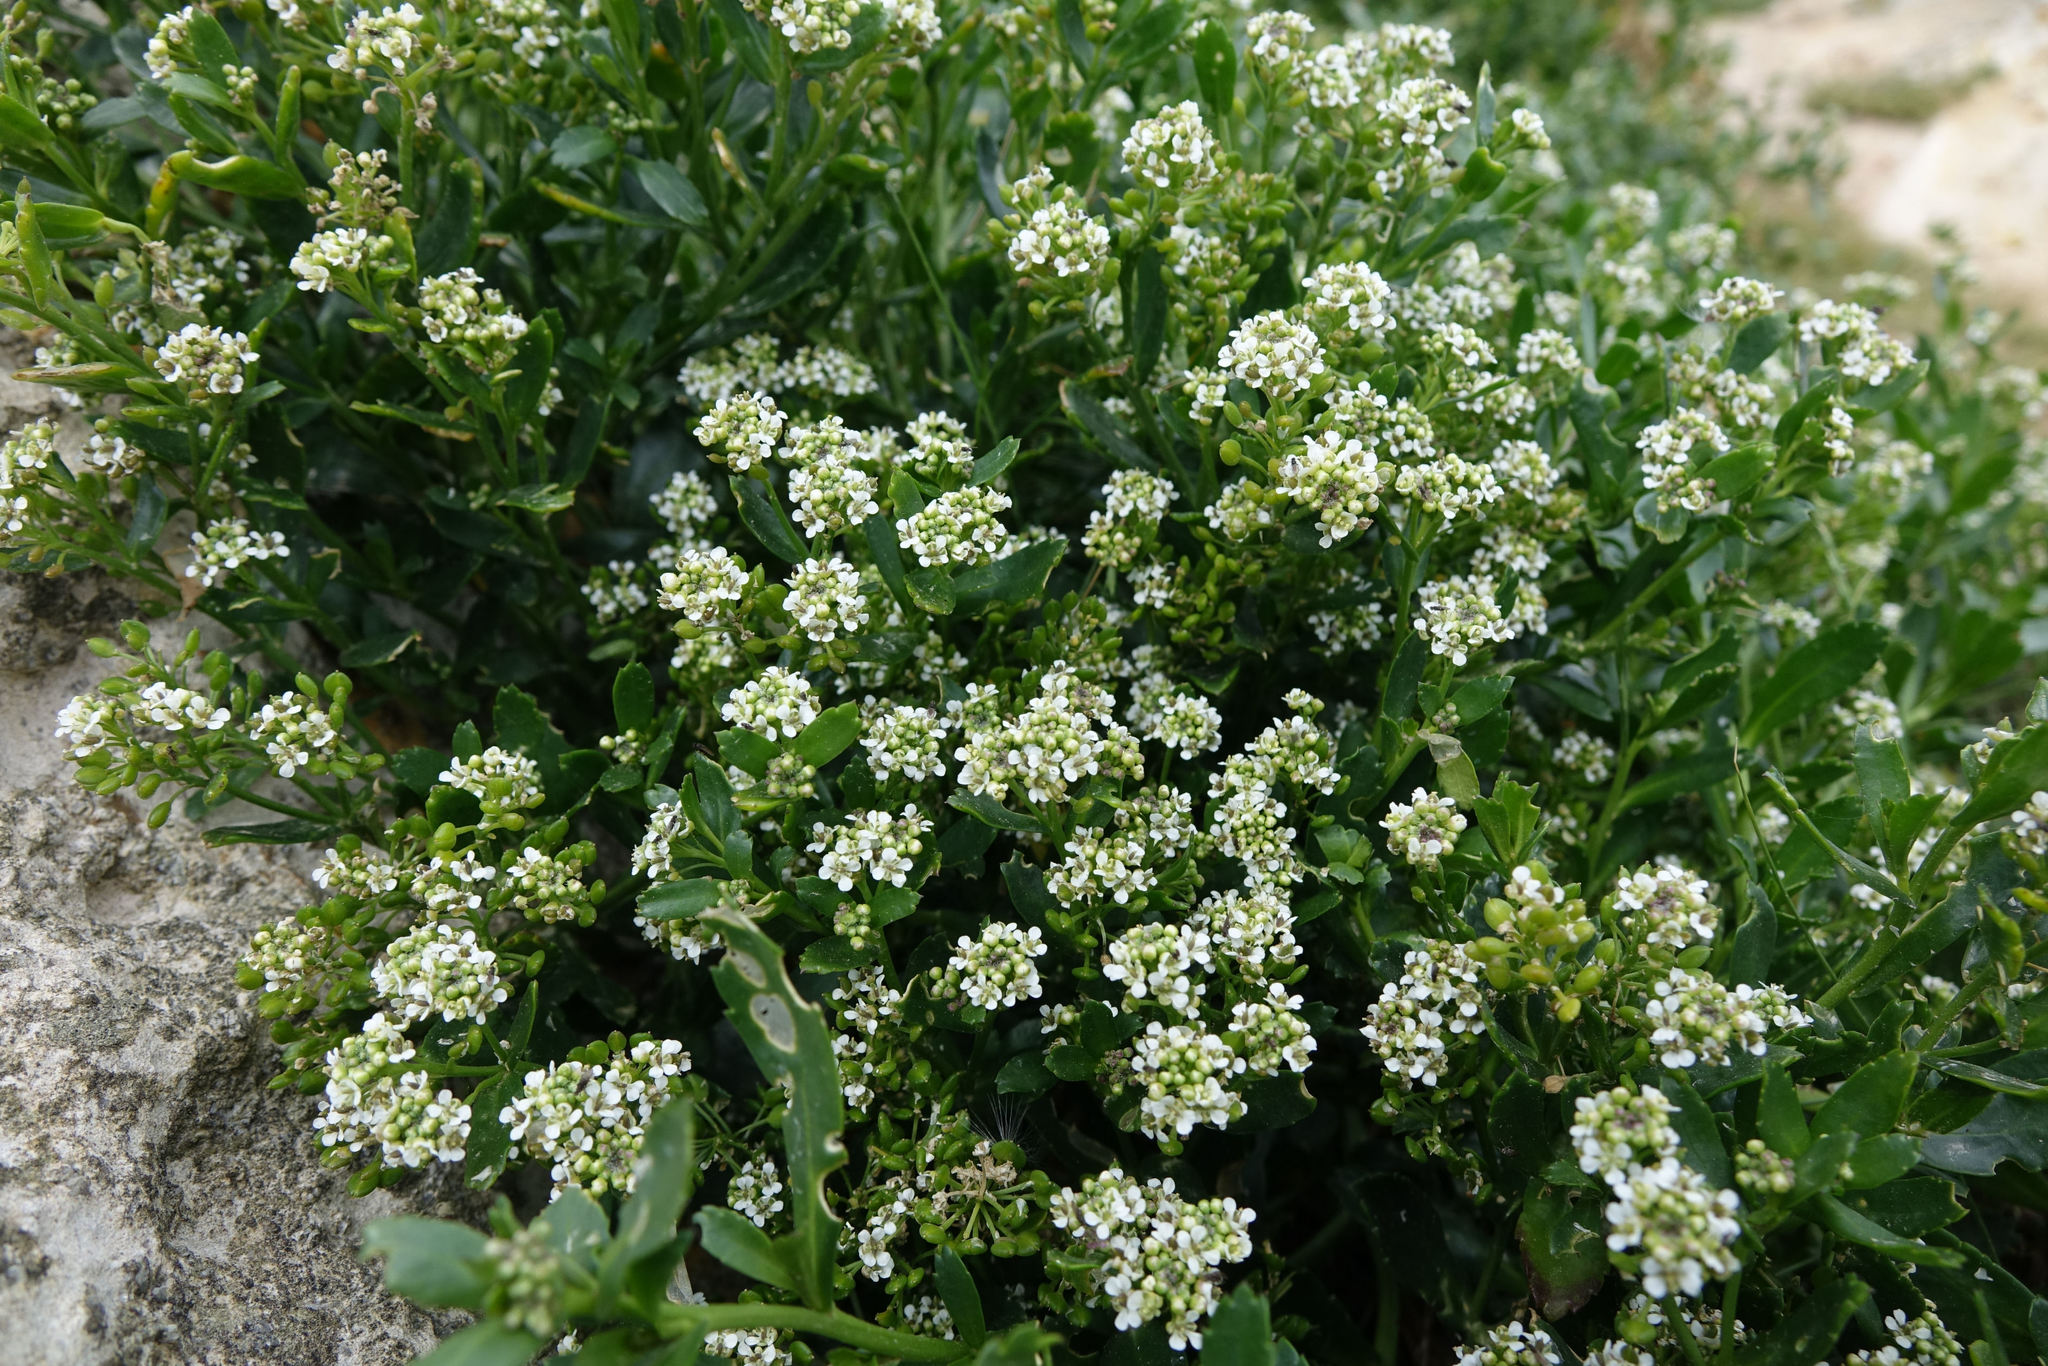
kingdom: Plantae
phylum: Tracheophyta
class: Magnoliopsida
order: Brassicales
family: Brassicaceae
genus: Lepidium
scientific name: Lepidium crassum
